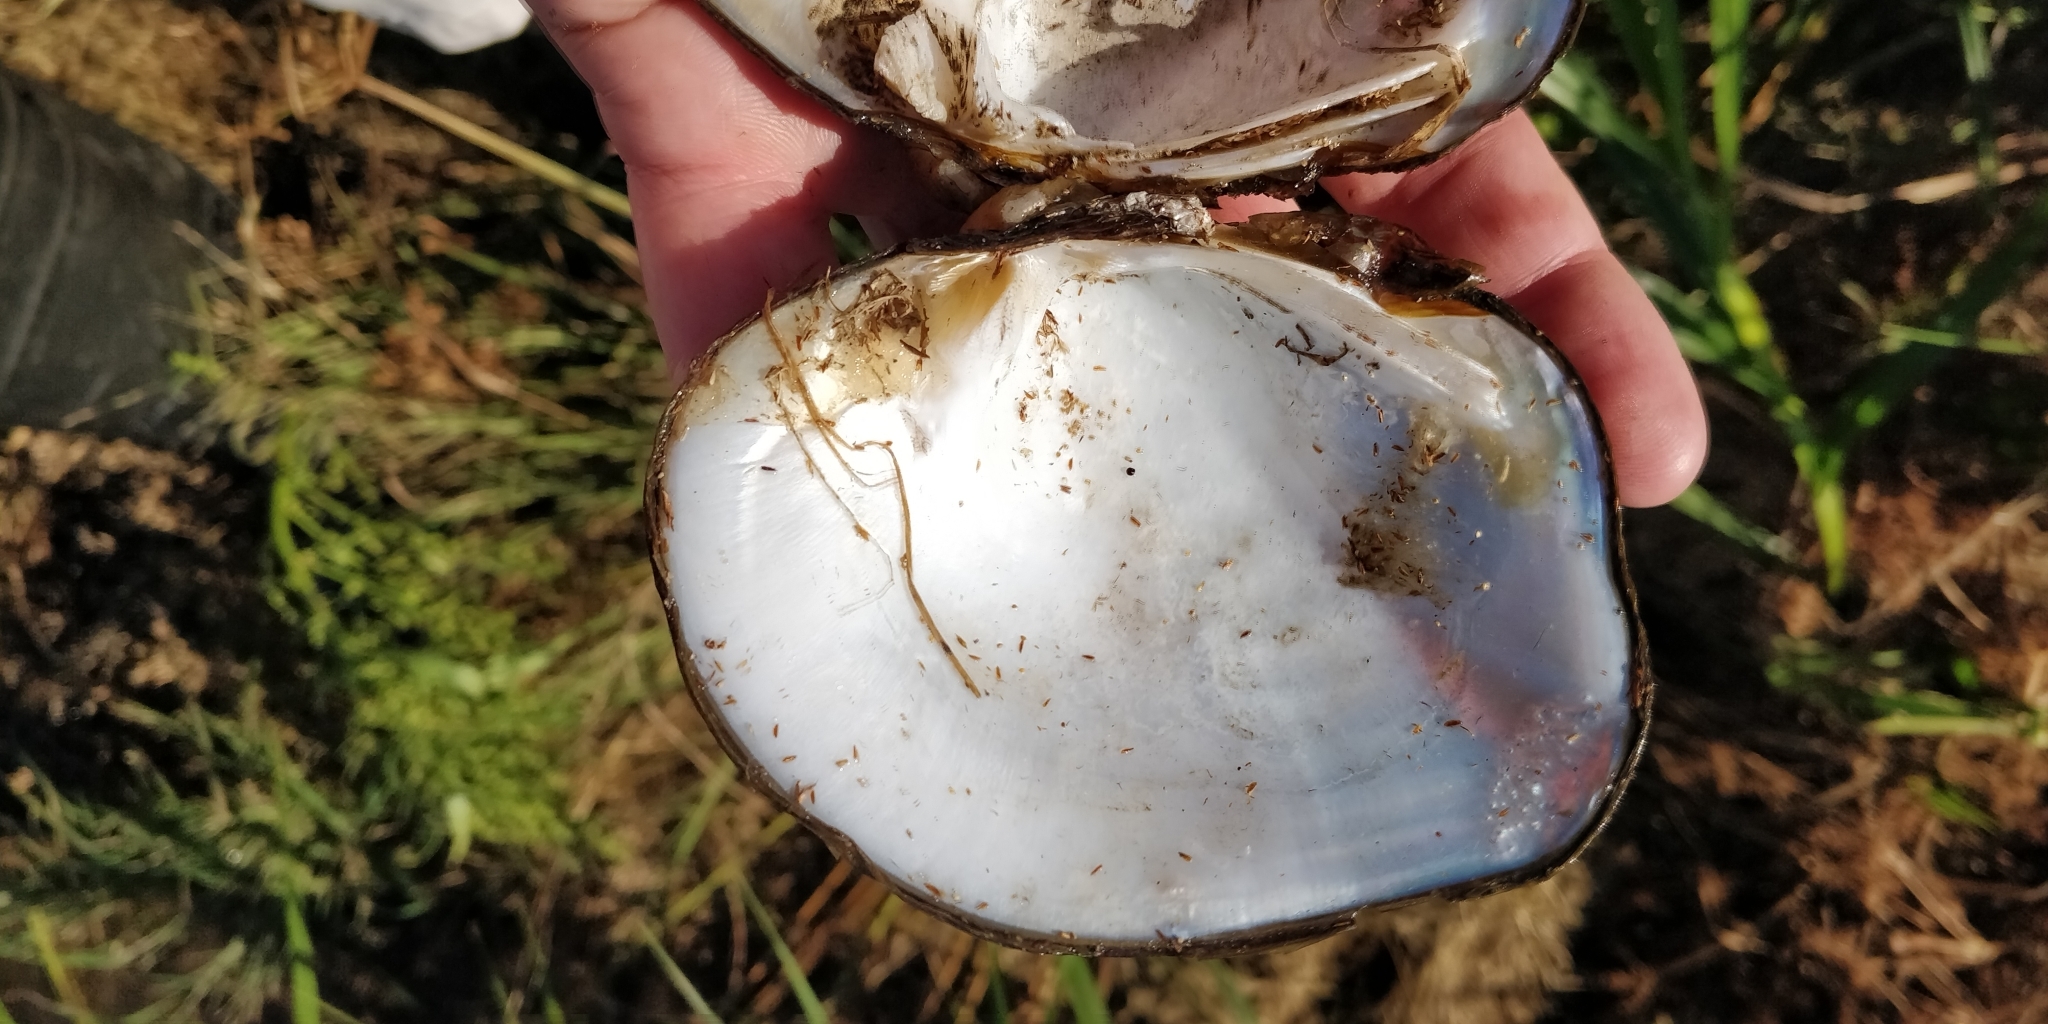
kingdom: Animalia
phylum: Mollusca
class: Bivalvia
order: Unionida
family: Unionidae
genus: Quadrula
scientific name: Quadrula quadrula
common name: Mapleleaf
